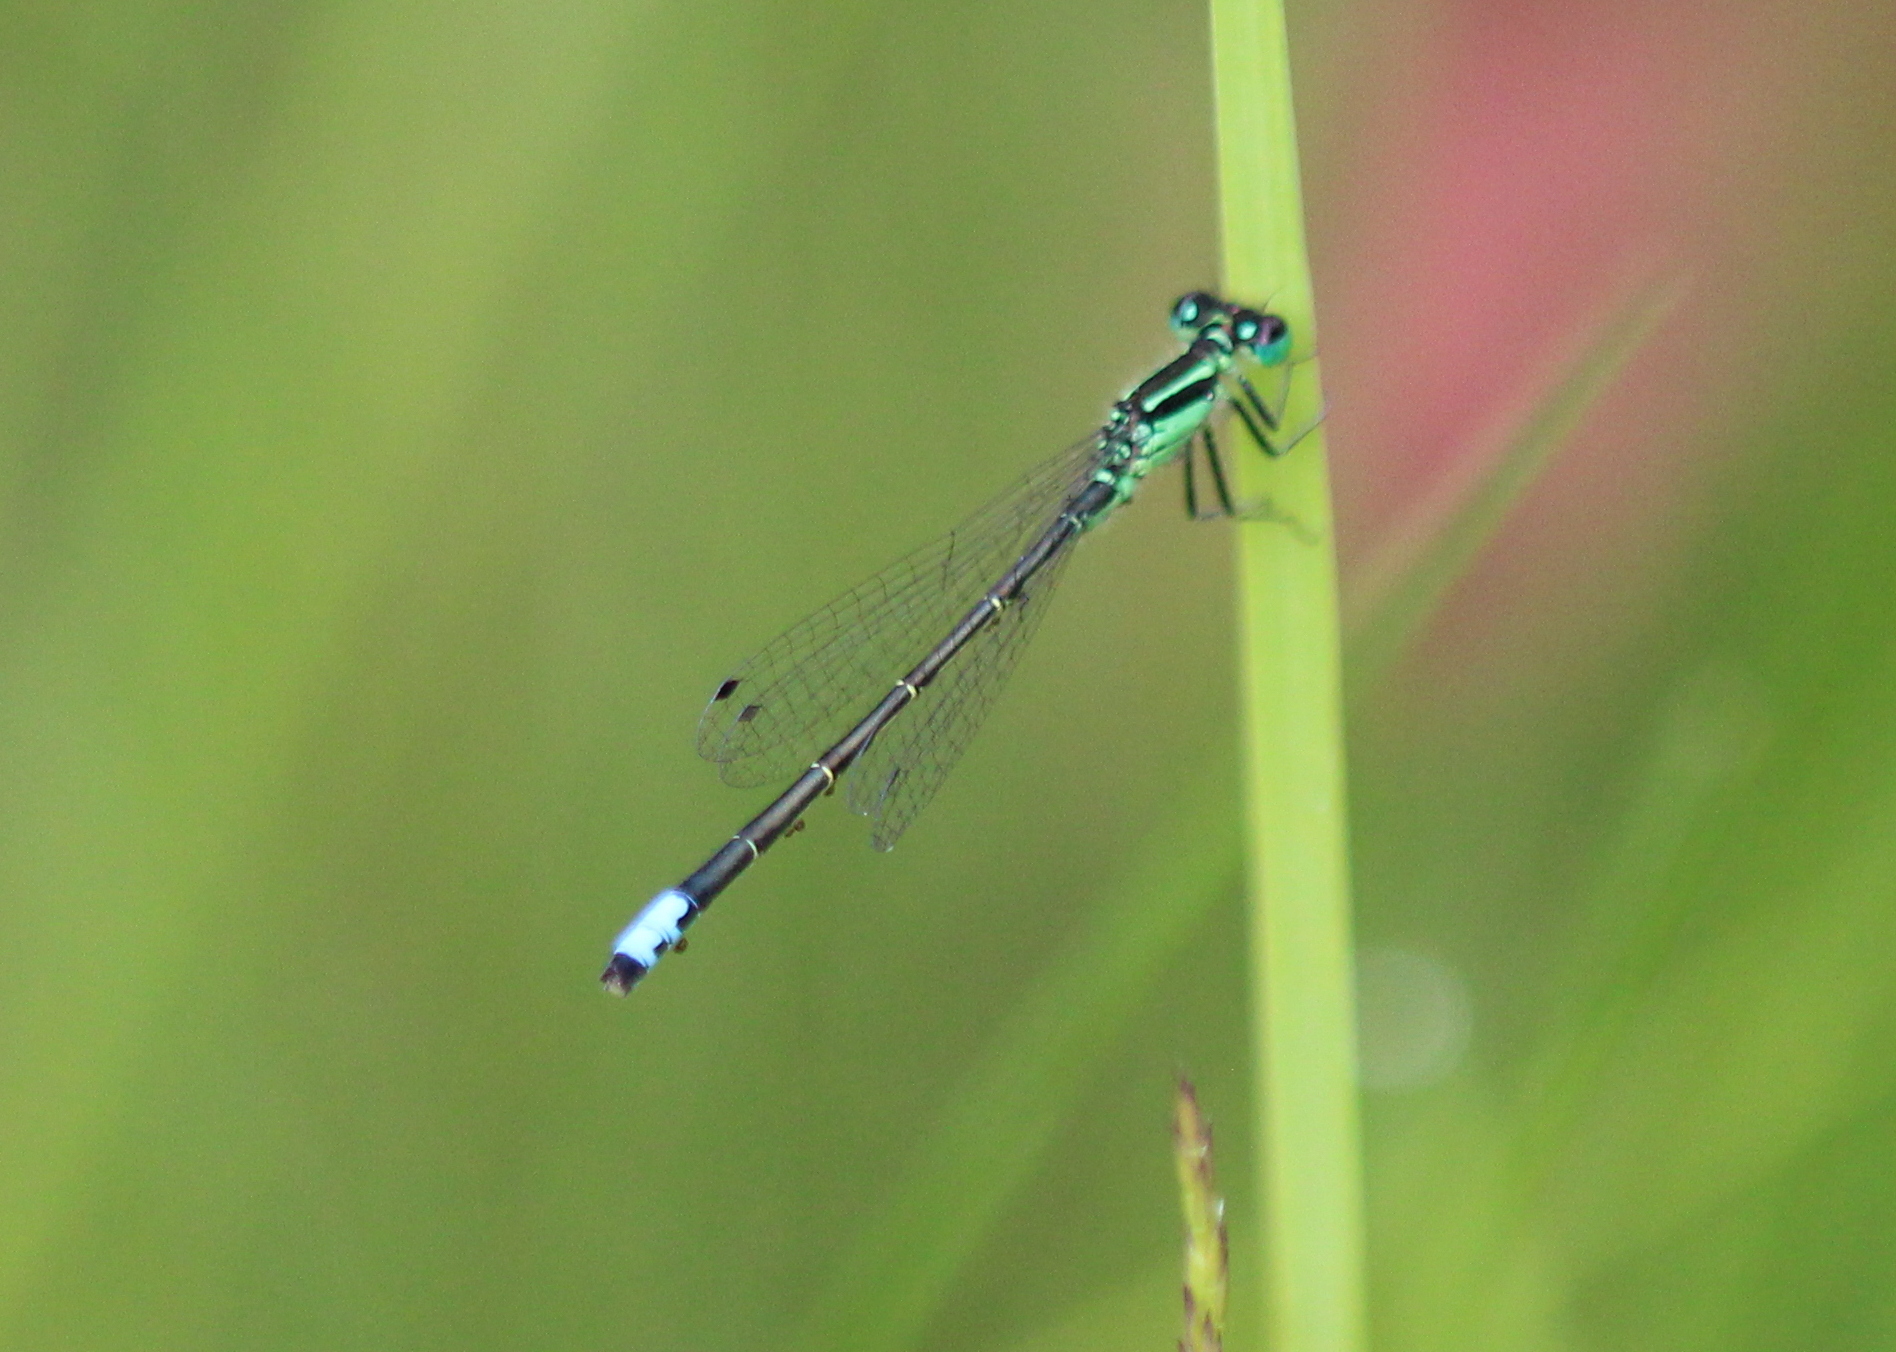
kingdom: Animalia
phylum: Arthropoda
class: Insecta
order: Odonata
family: Coenagrionidae
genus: Ischnura
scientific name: Ischnura verticalis
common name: Eastern forktail
